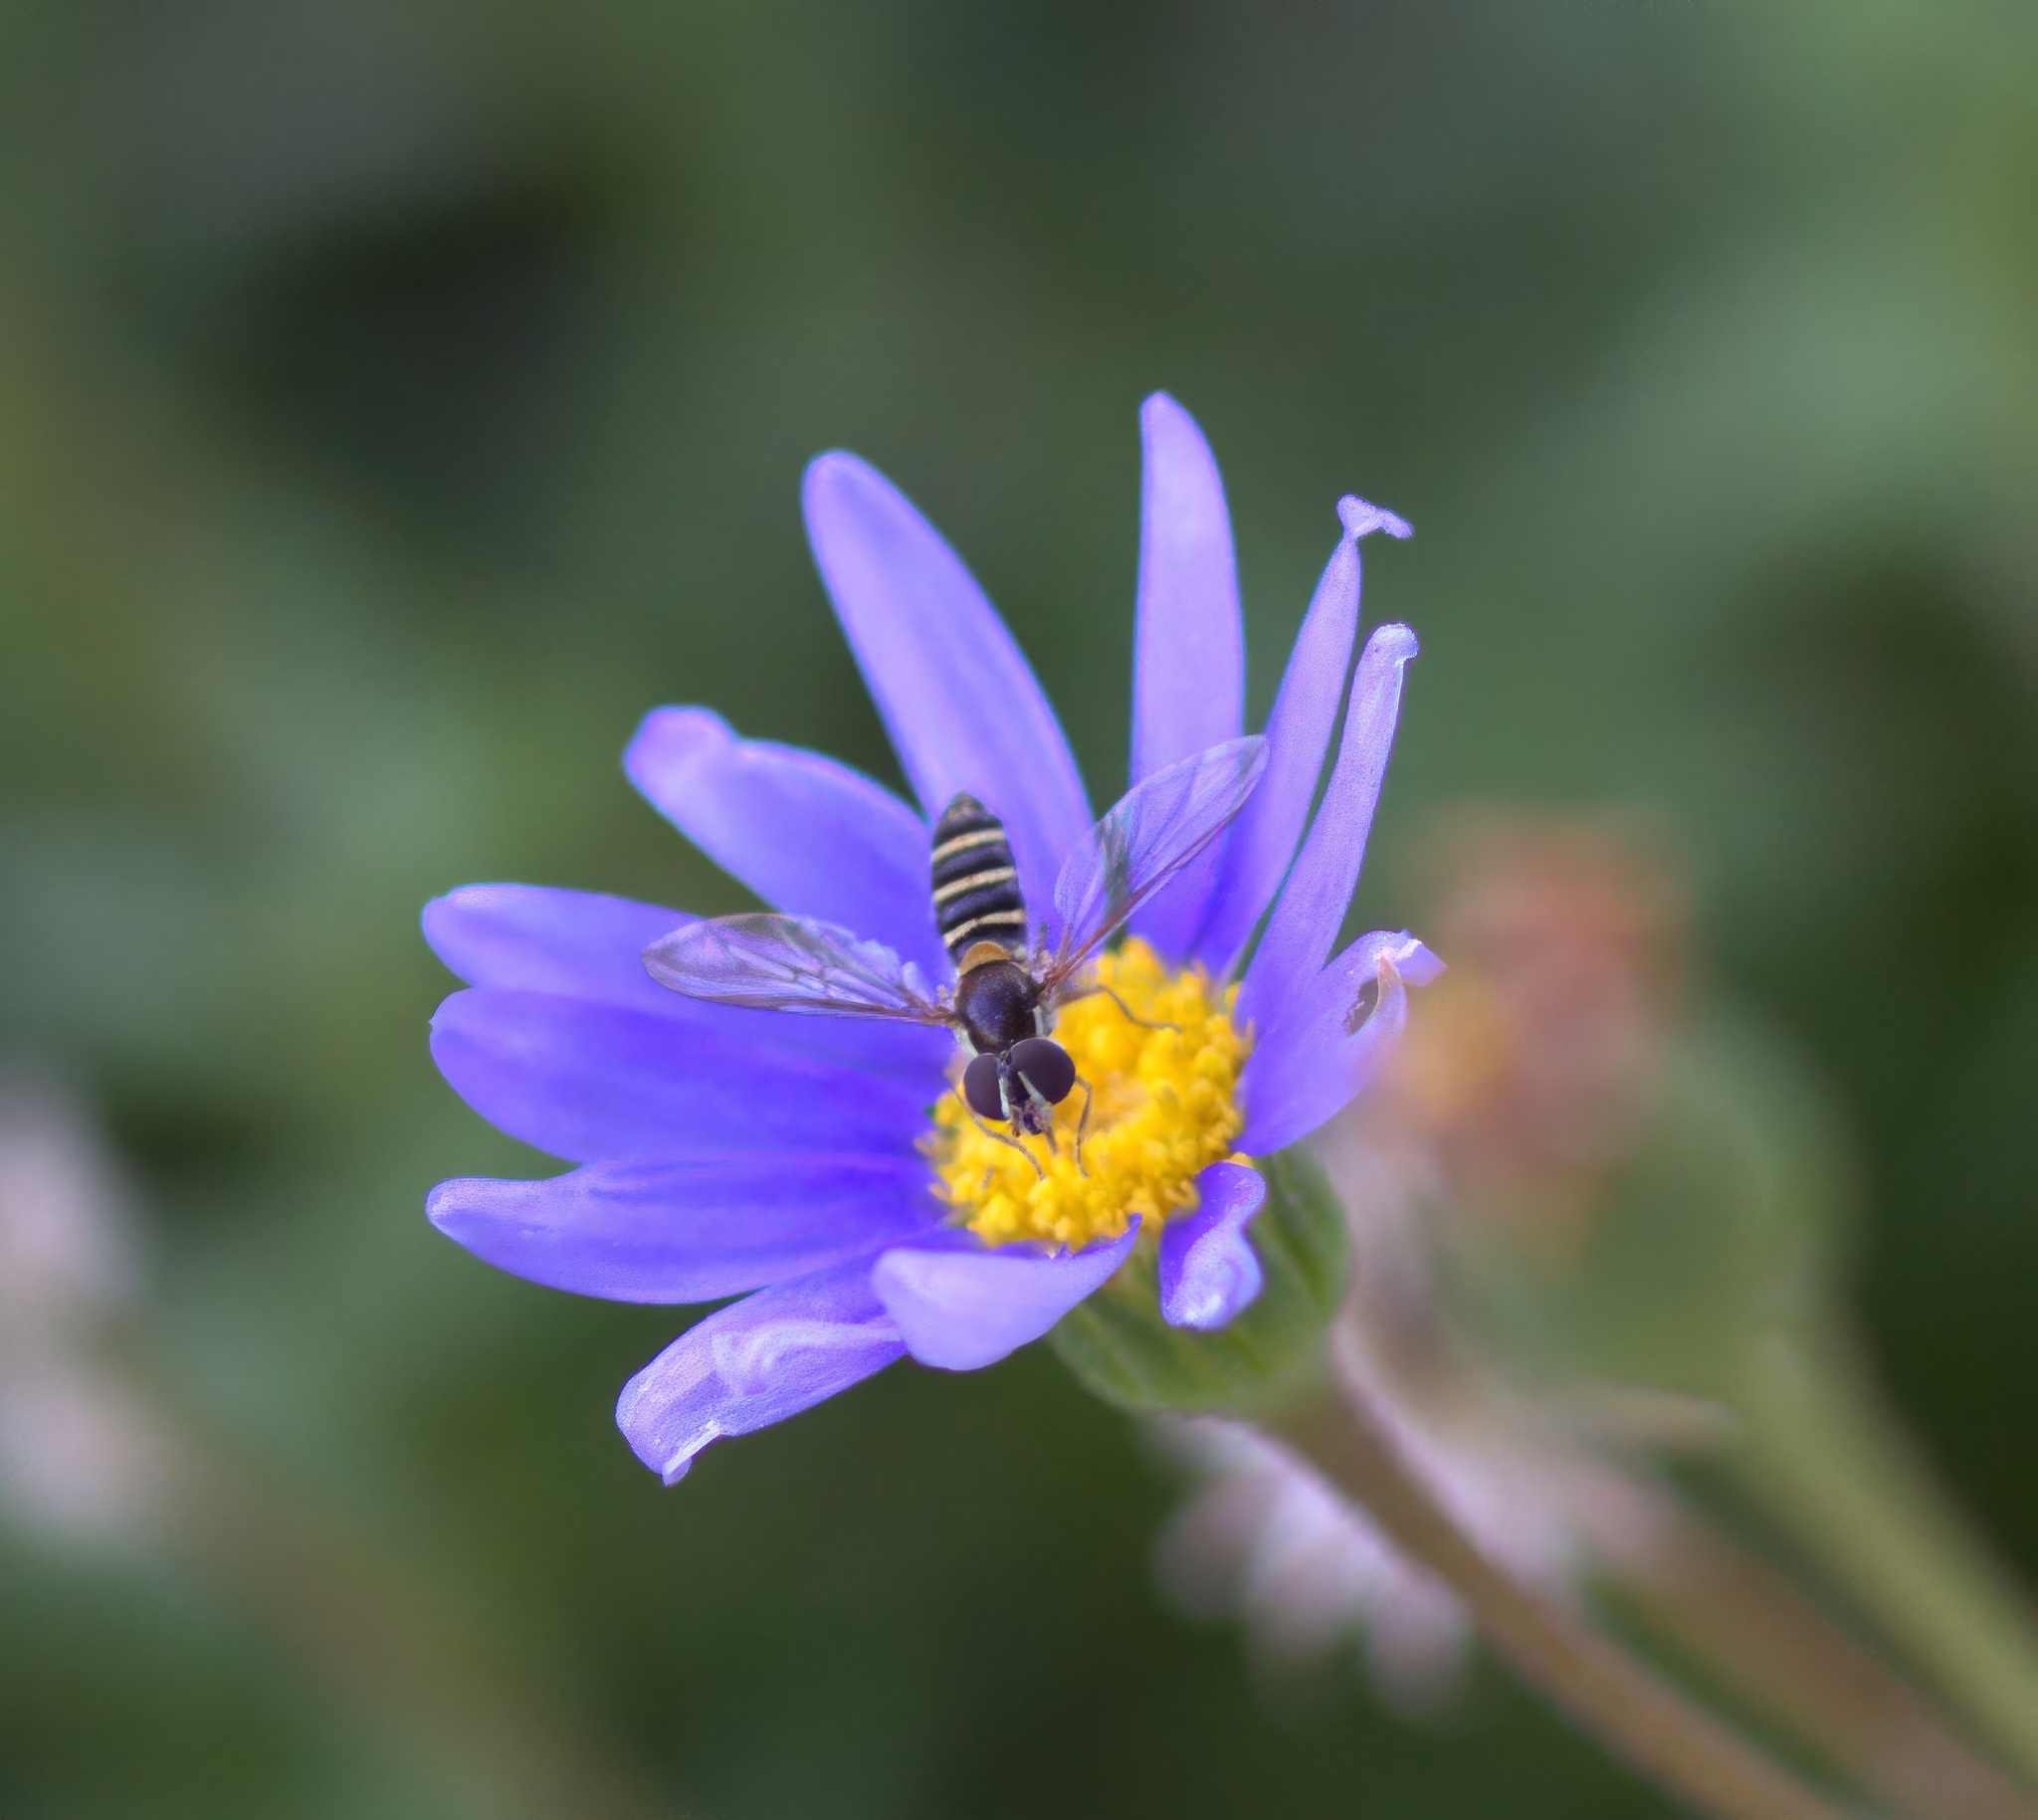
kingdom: Animalia
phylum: Arthropoda
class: Insecta
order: Diptera
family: Syrphidae
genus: Fazia
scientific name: Fazia micrura
